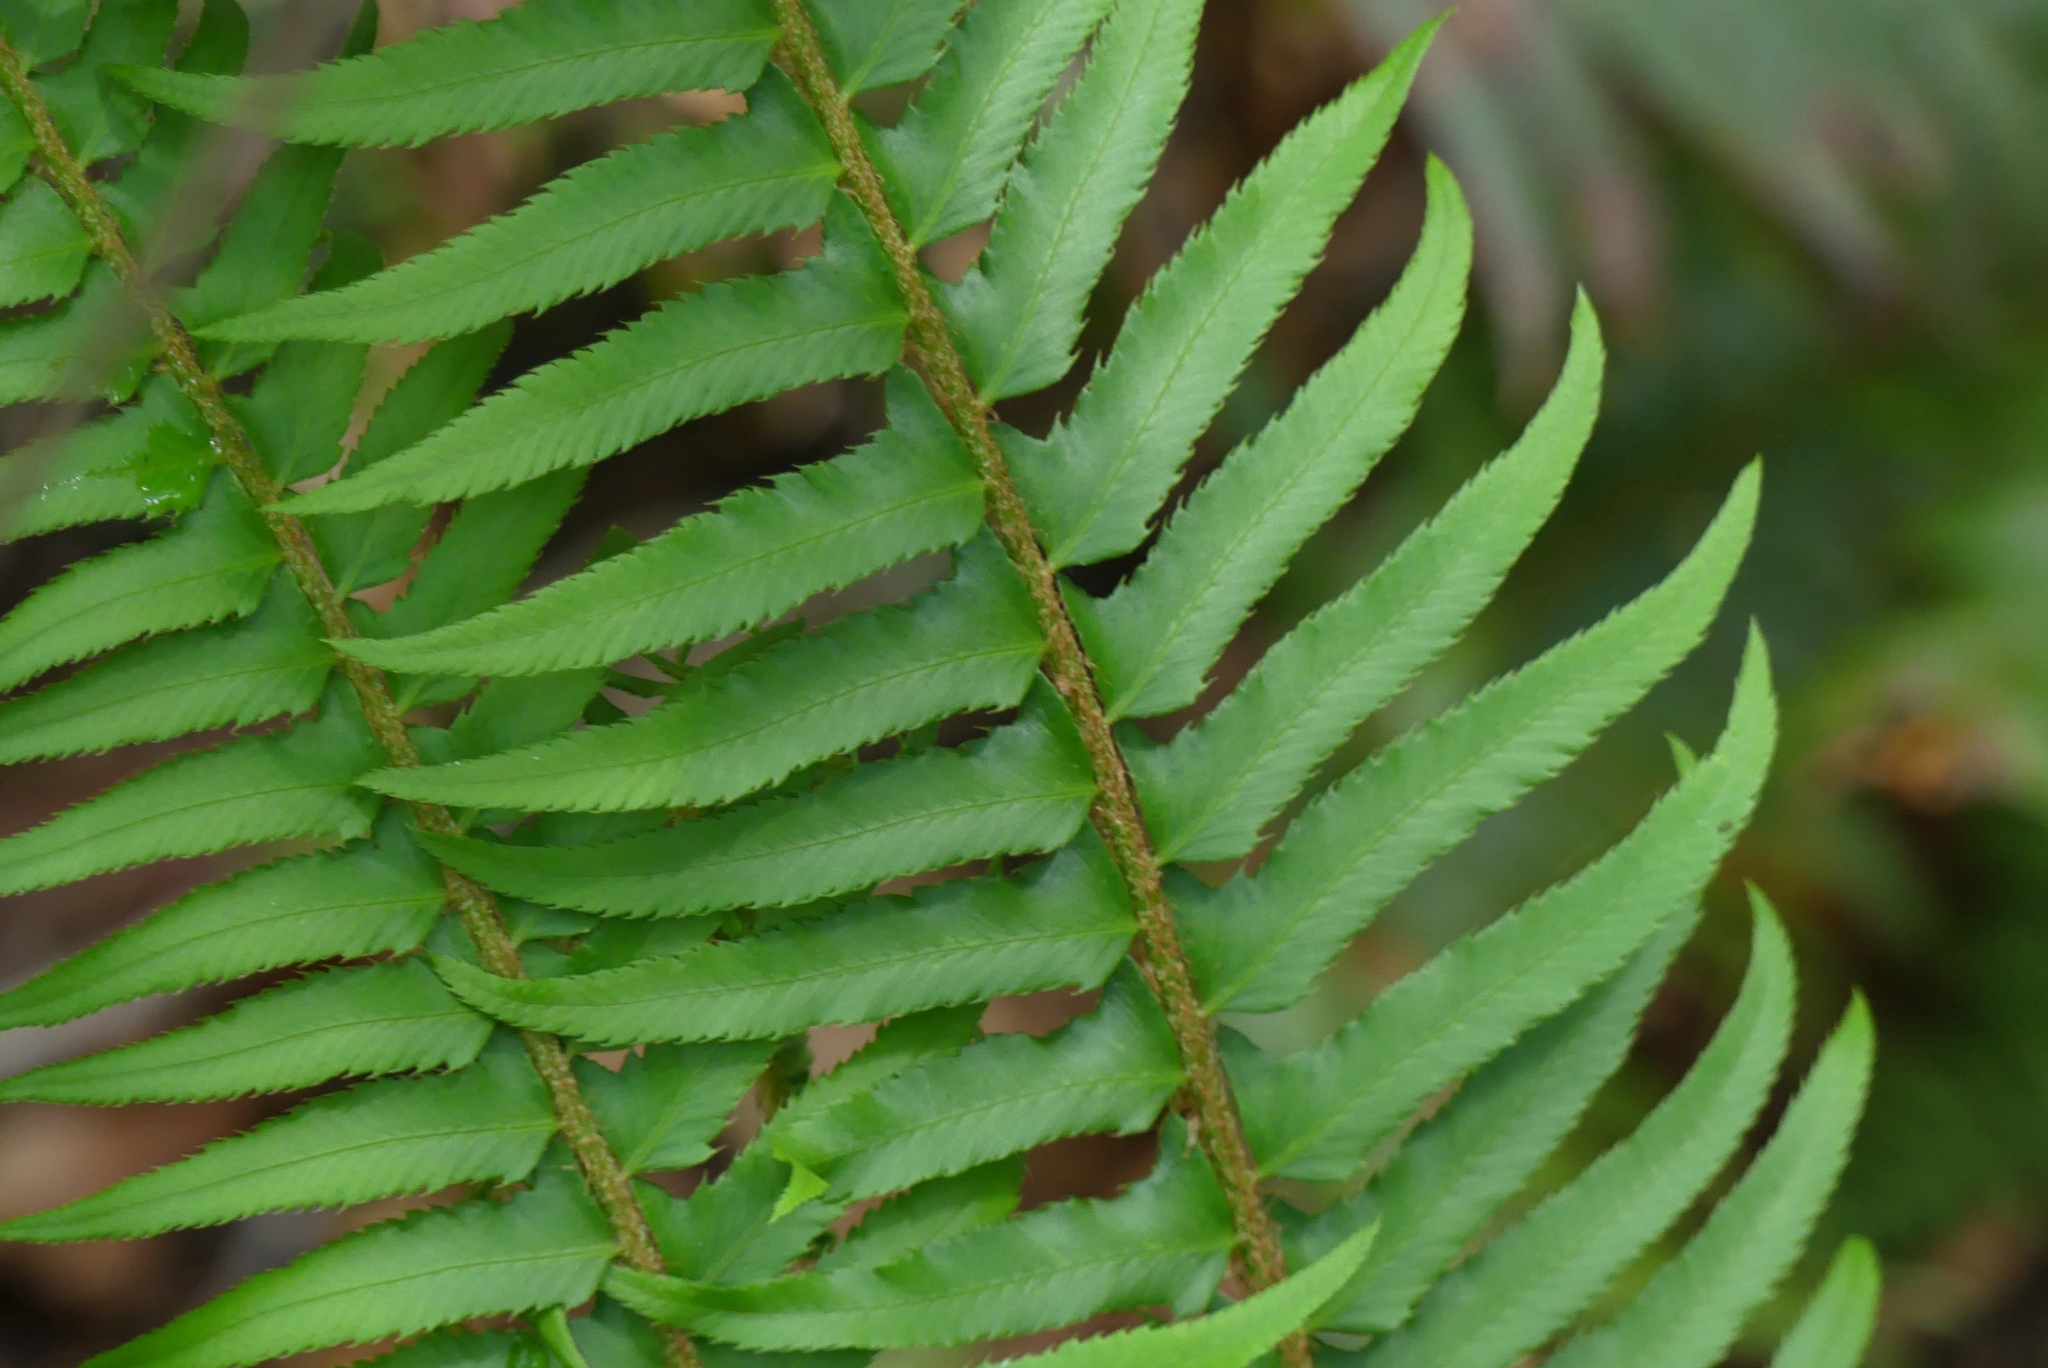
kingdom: Plantae
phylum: Tracheophyta
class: Polypodiopsida
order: Polypodiales
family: Dryopteridaceae
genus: Polystichum
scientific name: Polystichum munitum
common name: Western sword-fern
